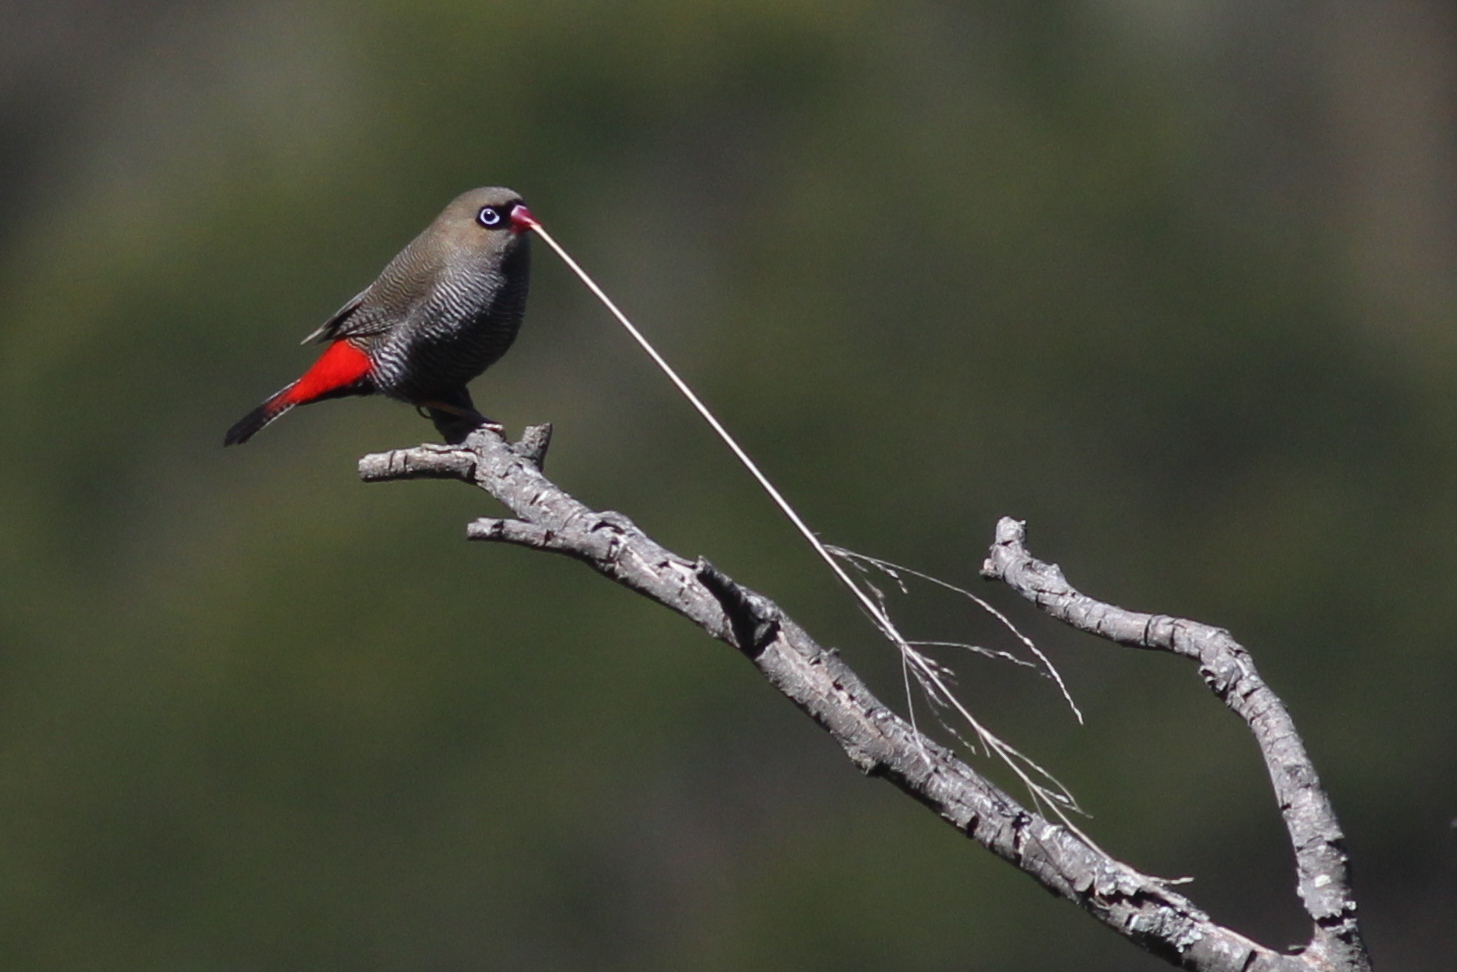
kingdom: Animalia
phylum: Chordata
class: Aves
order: Passeriformes
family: Estrildidae
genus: Stagonopleura
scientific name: Stagonopleura bella
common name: Beautiful firetail
